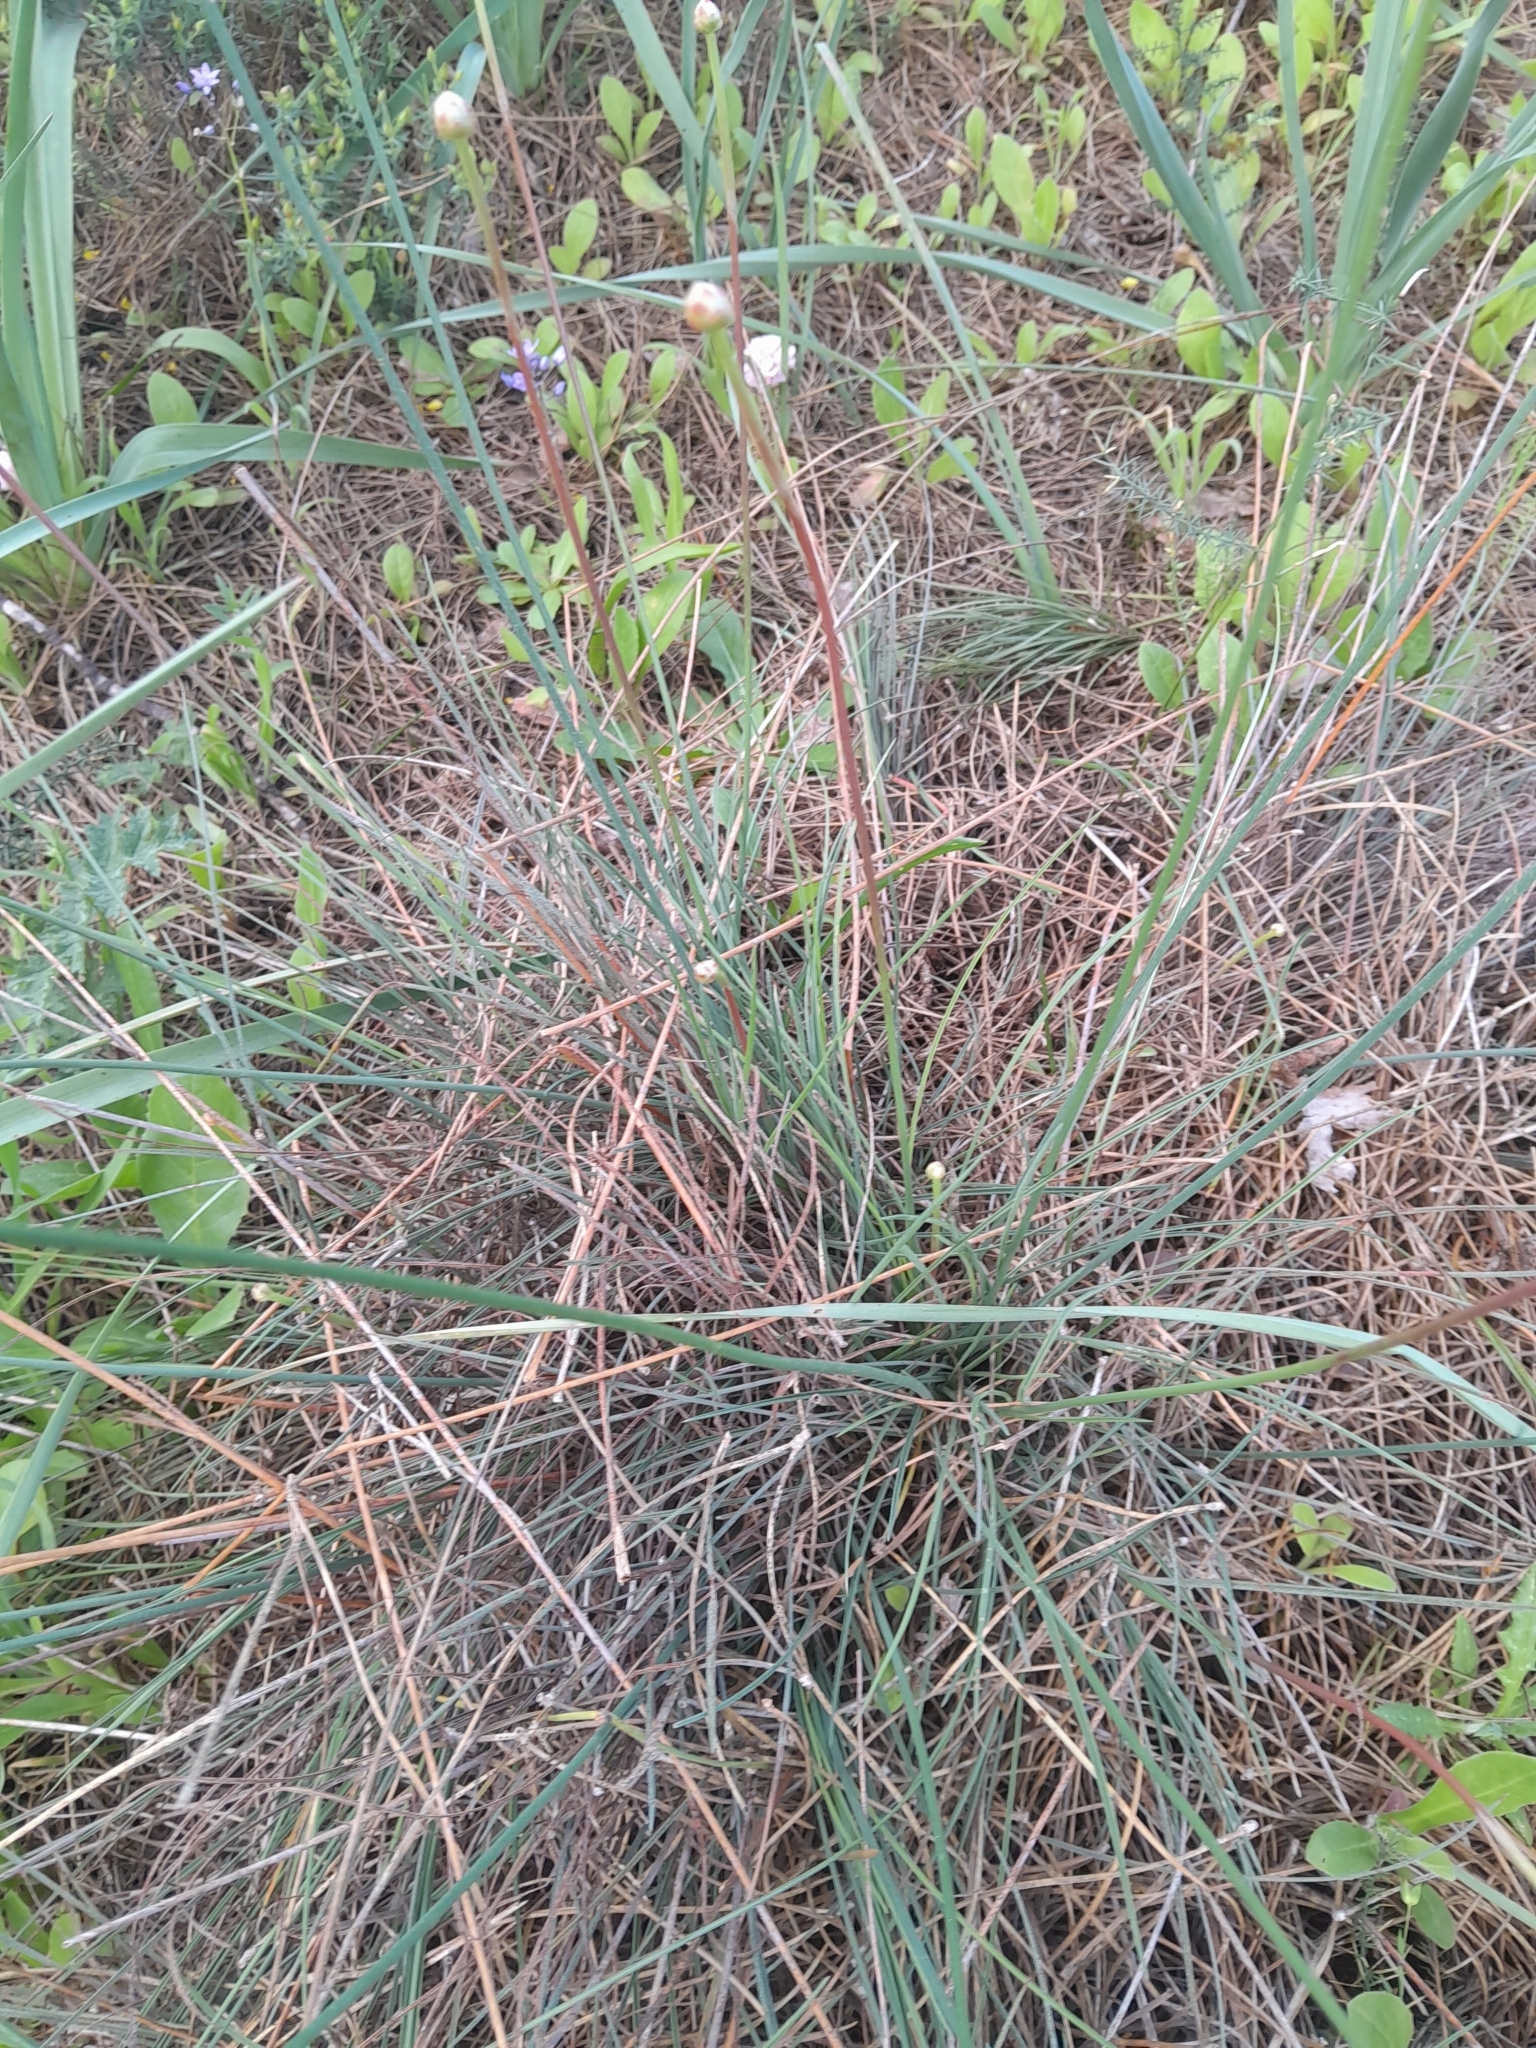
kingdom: Plantae
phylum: Tracheophyta
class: Magnoliopsida
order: Caryophyllales
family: Plumbaginaceae
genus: Armeria
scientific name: Armeria macrophylla
